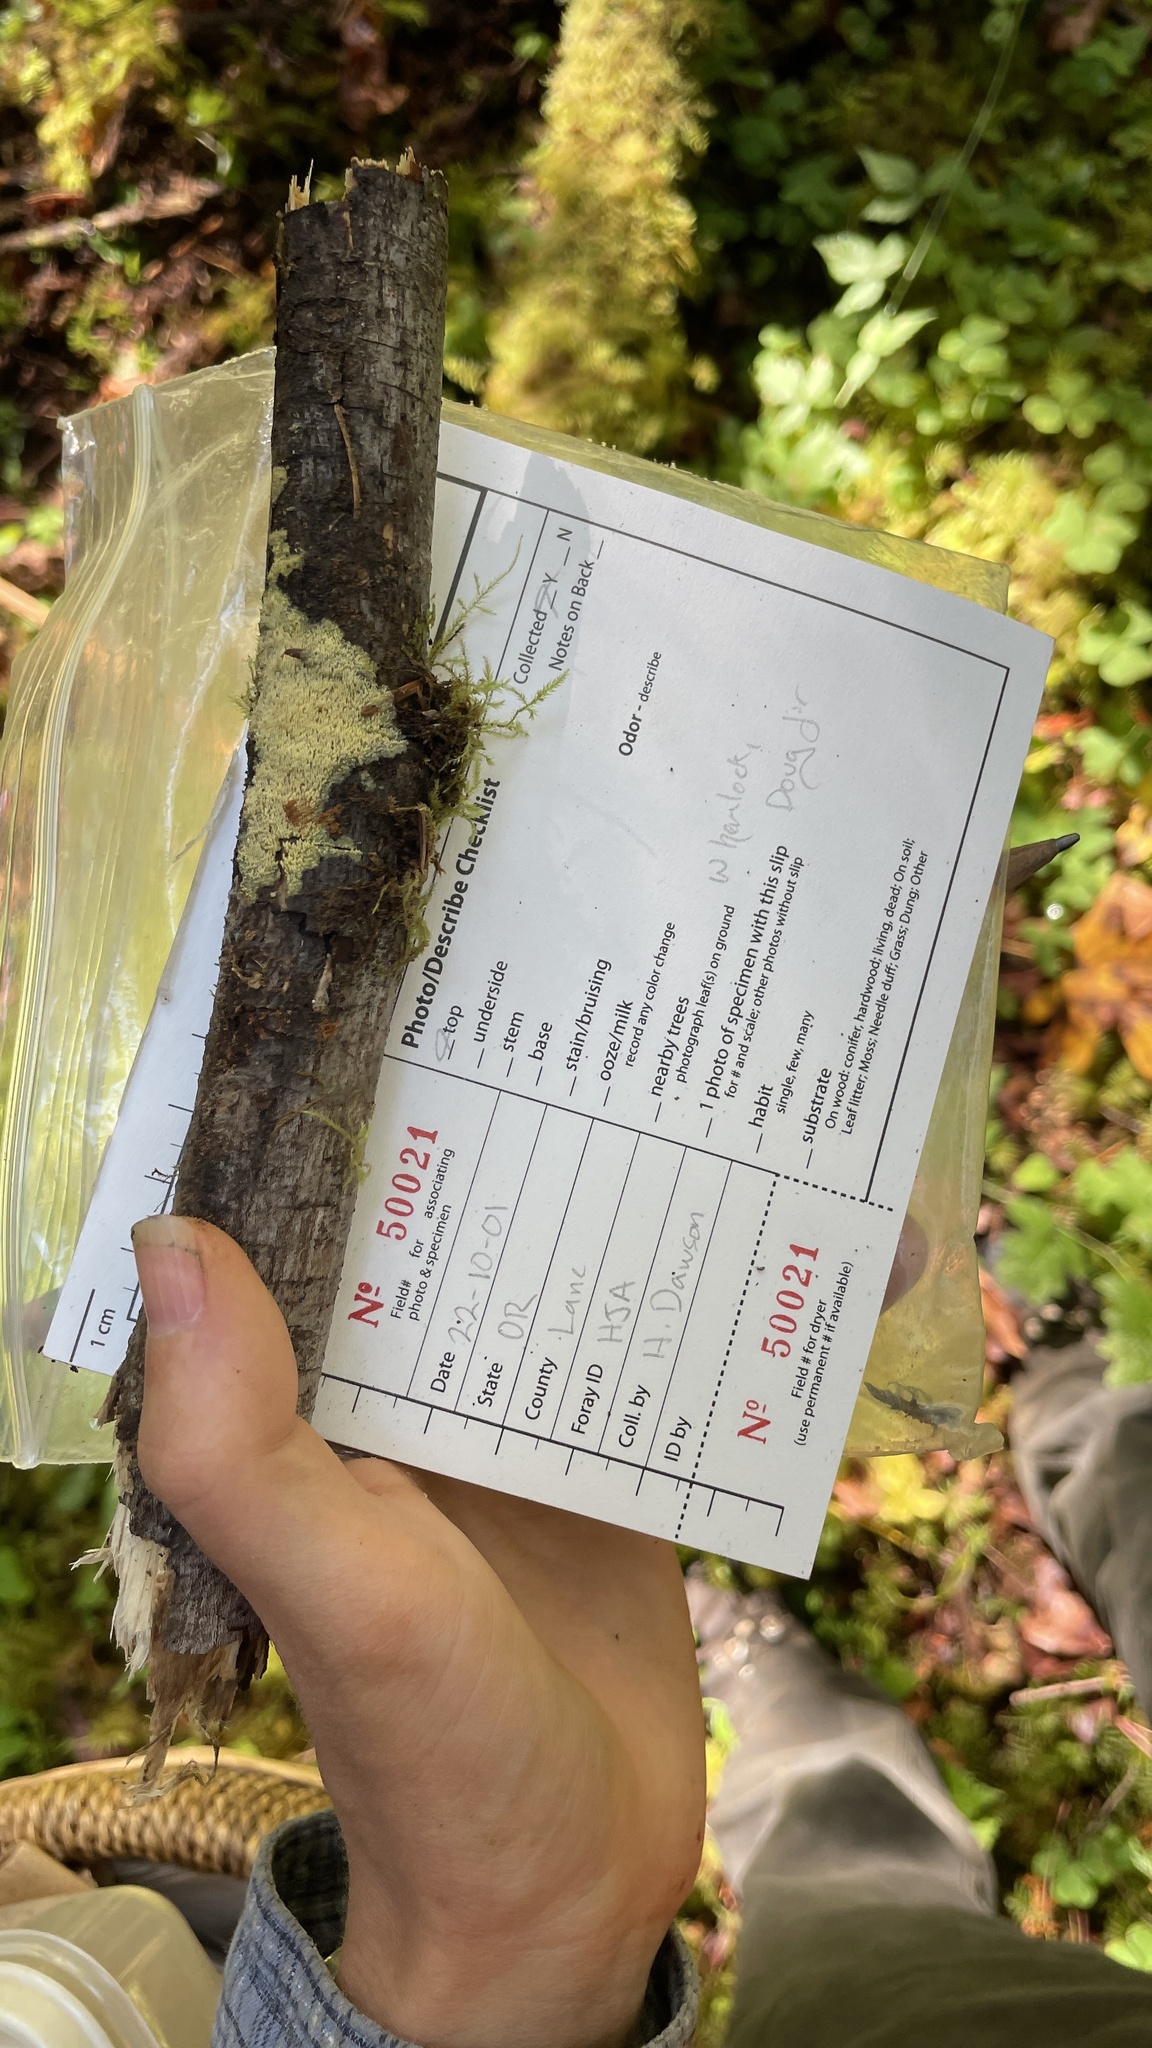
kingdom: Fungi
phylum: Basidiomycota
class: Agaricomycetes
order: Polyporales
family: Meruliaceae
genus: Mycoacia
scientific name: Mycoacia uda
